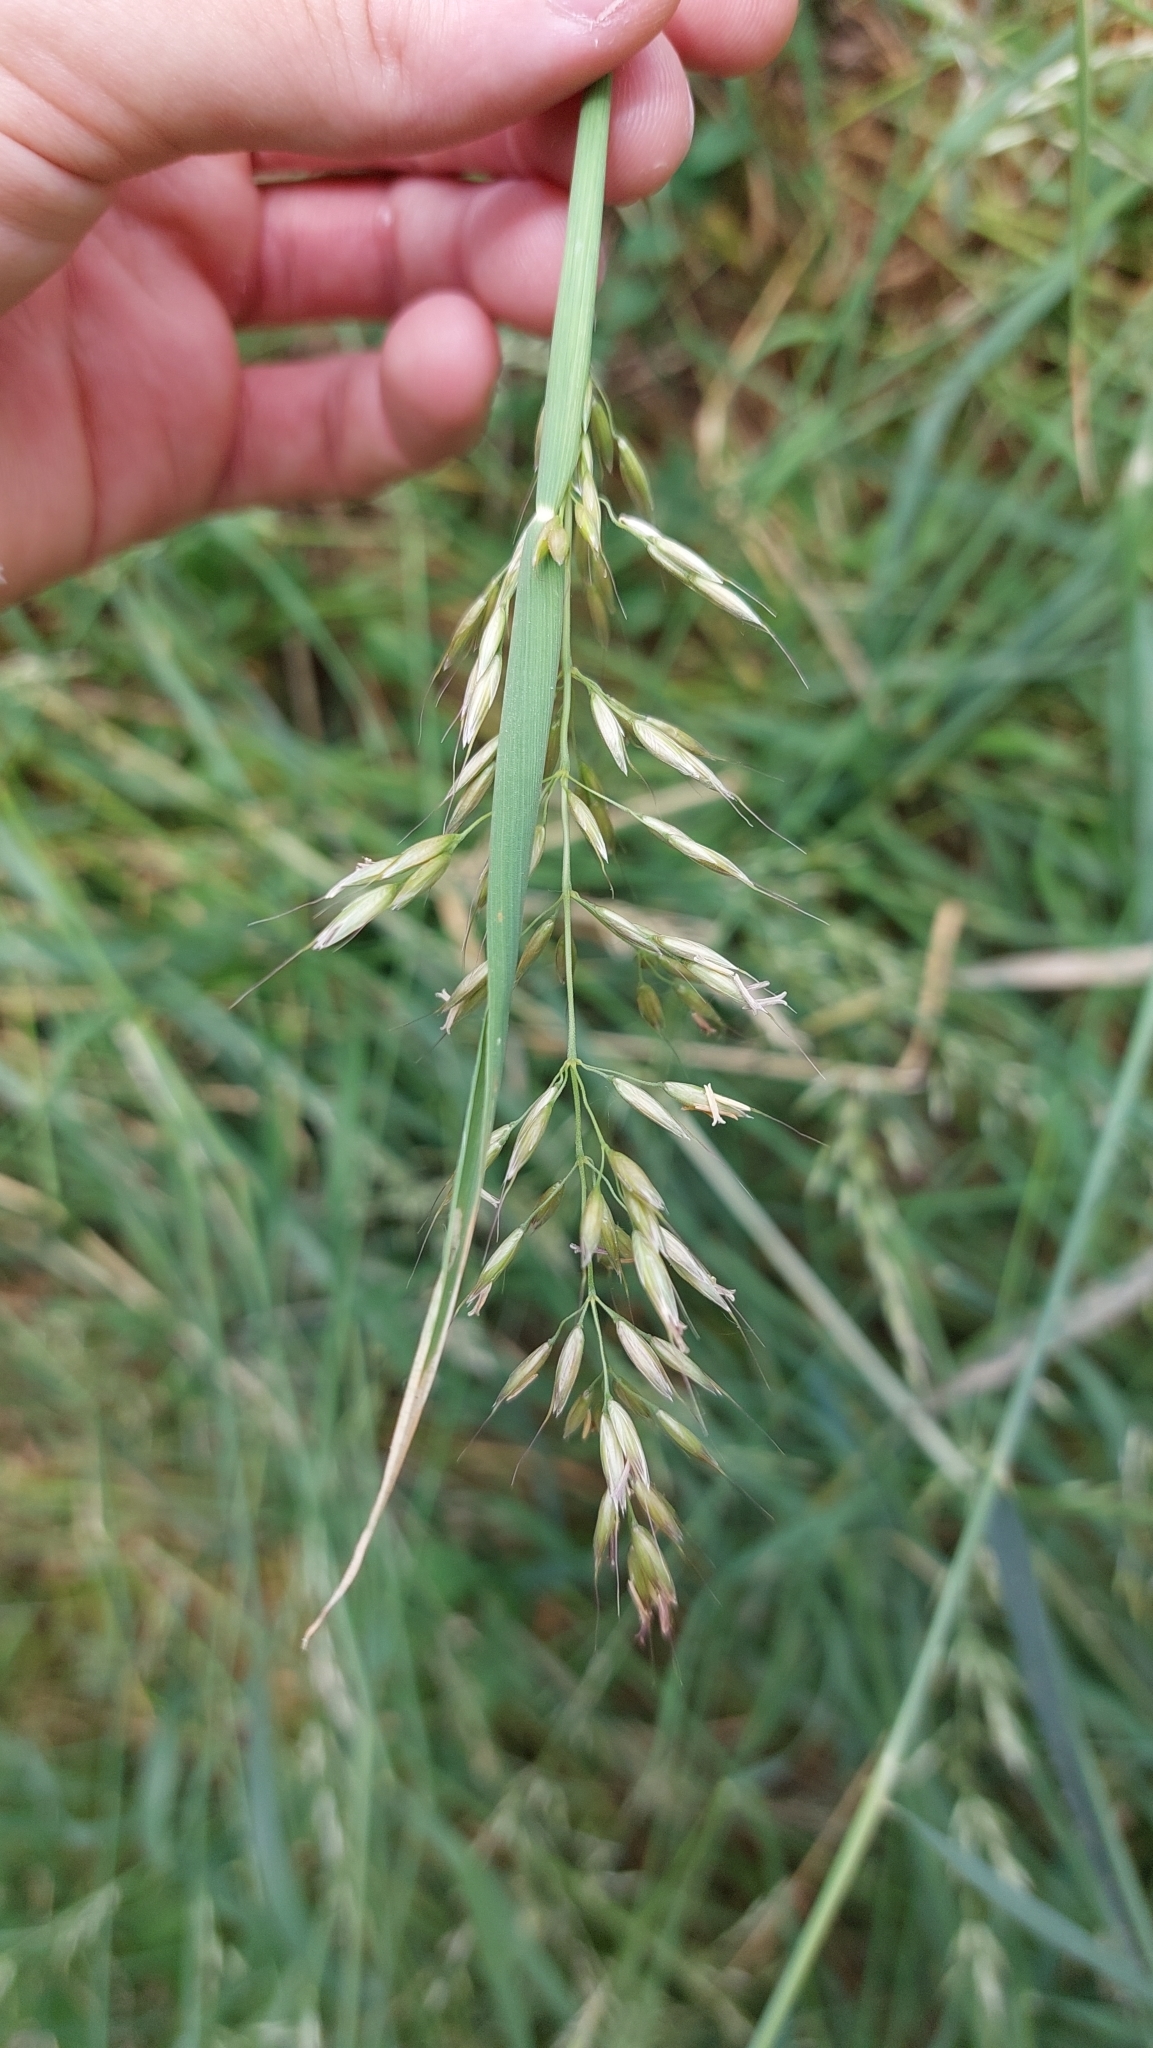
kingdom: Plantae
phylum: Tracheophyta
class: Liliopsida
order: Poales
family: Poaceae
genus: Arrhenatherum
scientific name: Arrhenatherum elatius
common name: Tall oatgrass
